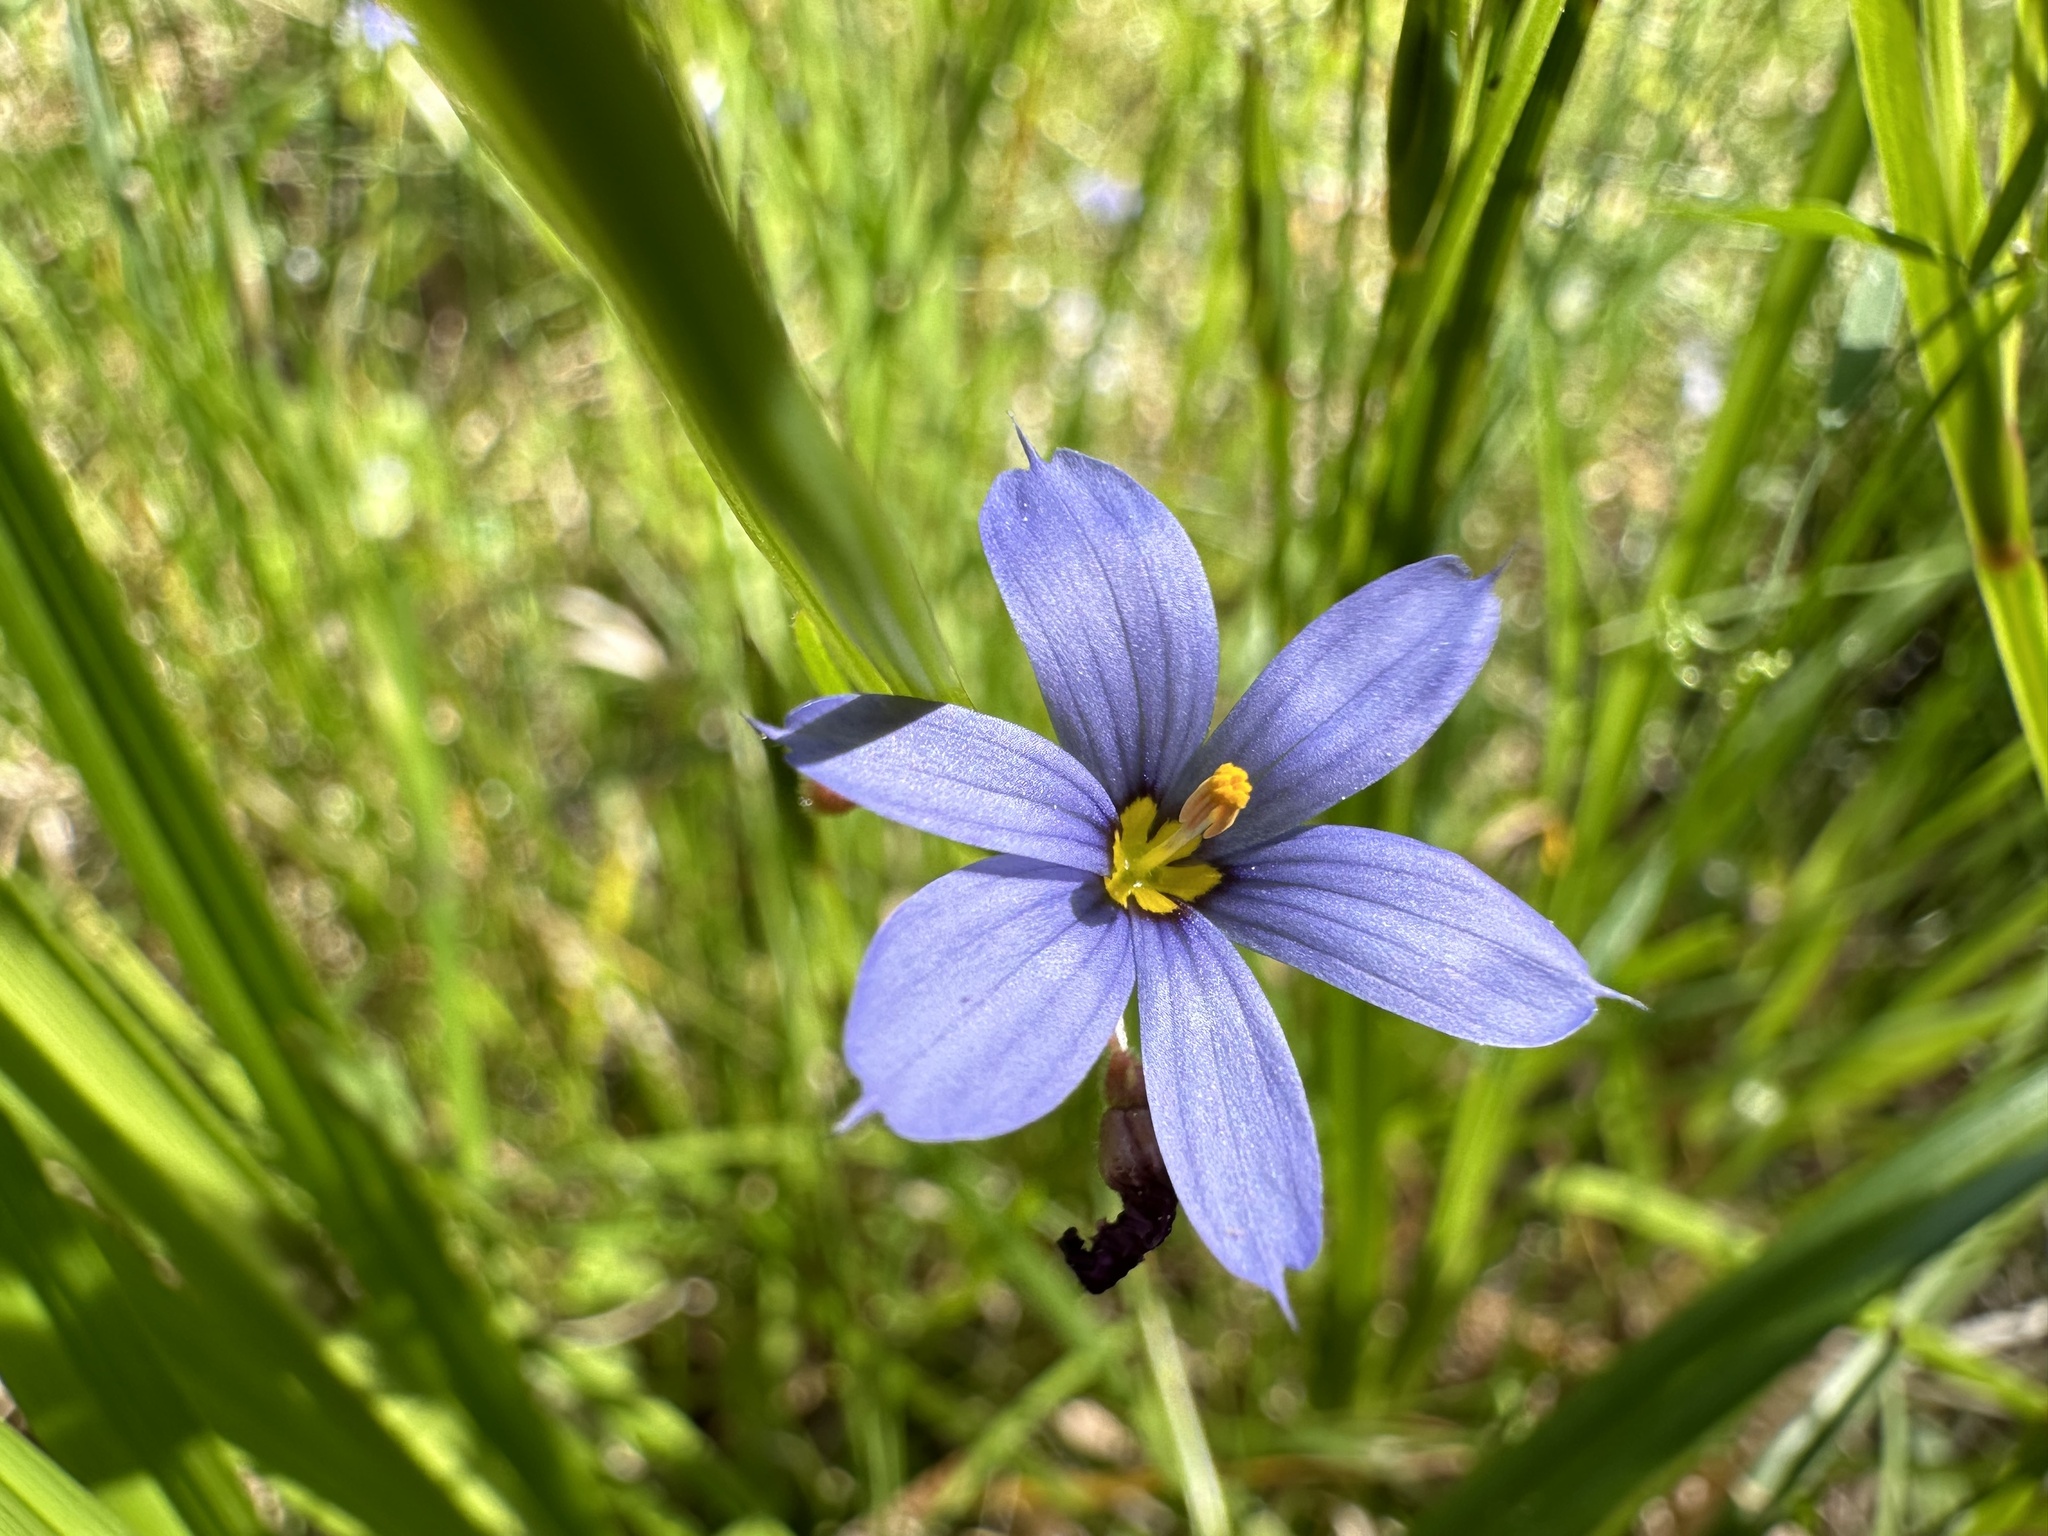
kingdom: Plantae
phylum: Tracheophyta
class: Liliopsida
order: Asparagales
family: Iridaceae
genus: Sisyrinchium
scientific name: Sisyrinchium angustifolium
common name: Narrow-leaf blue-eyed-grass
